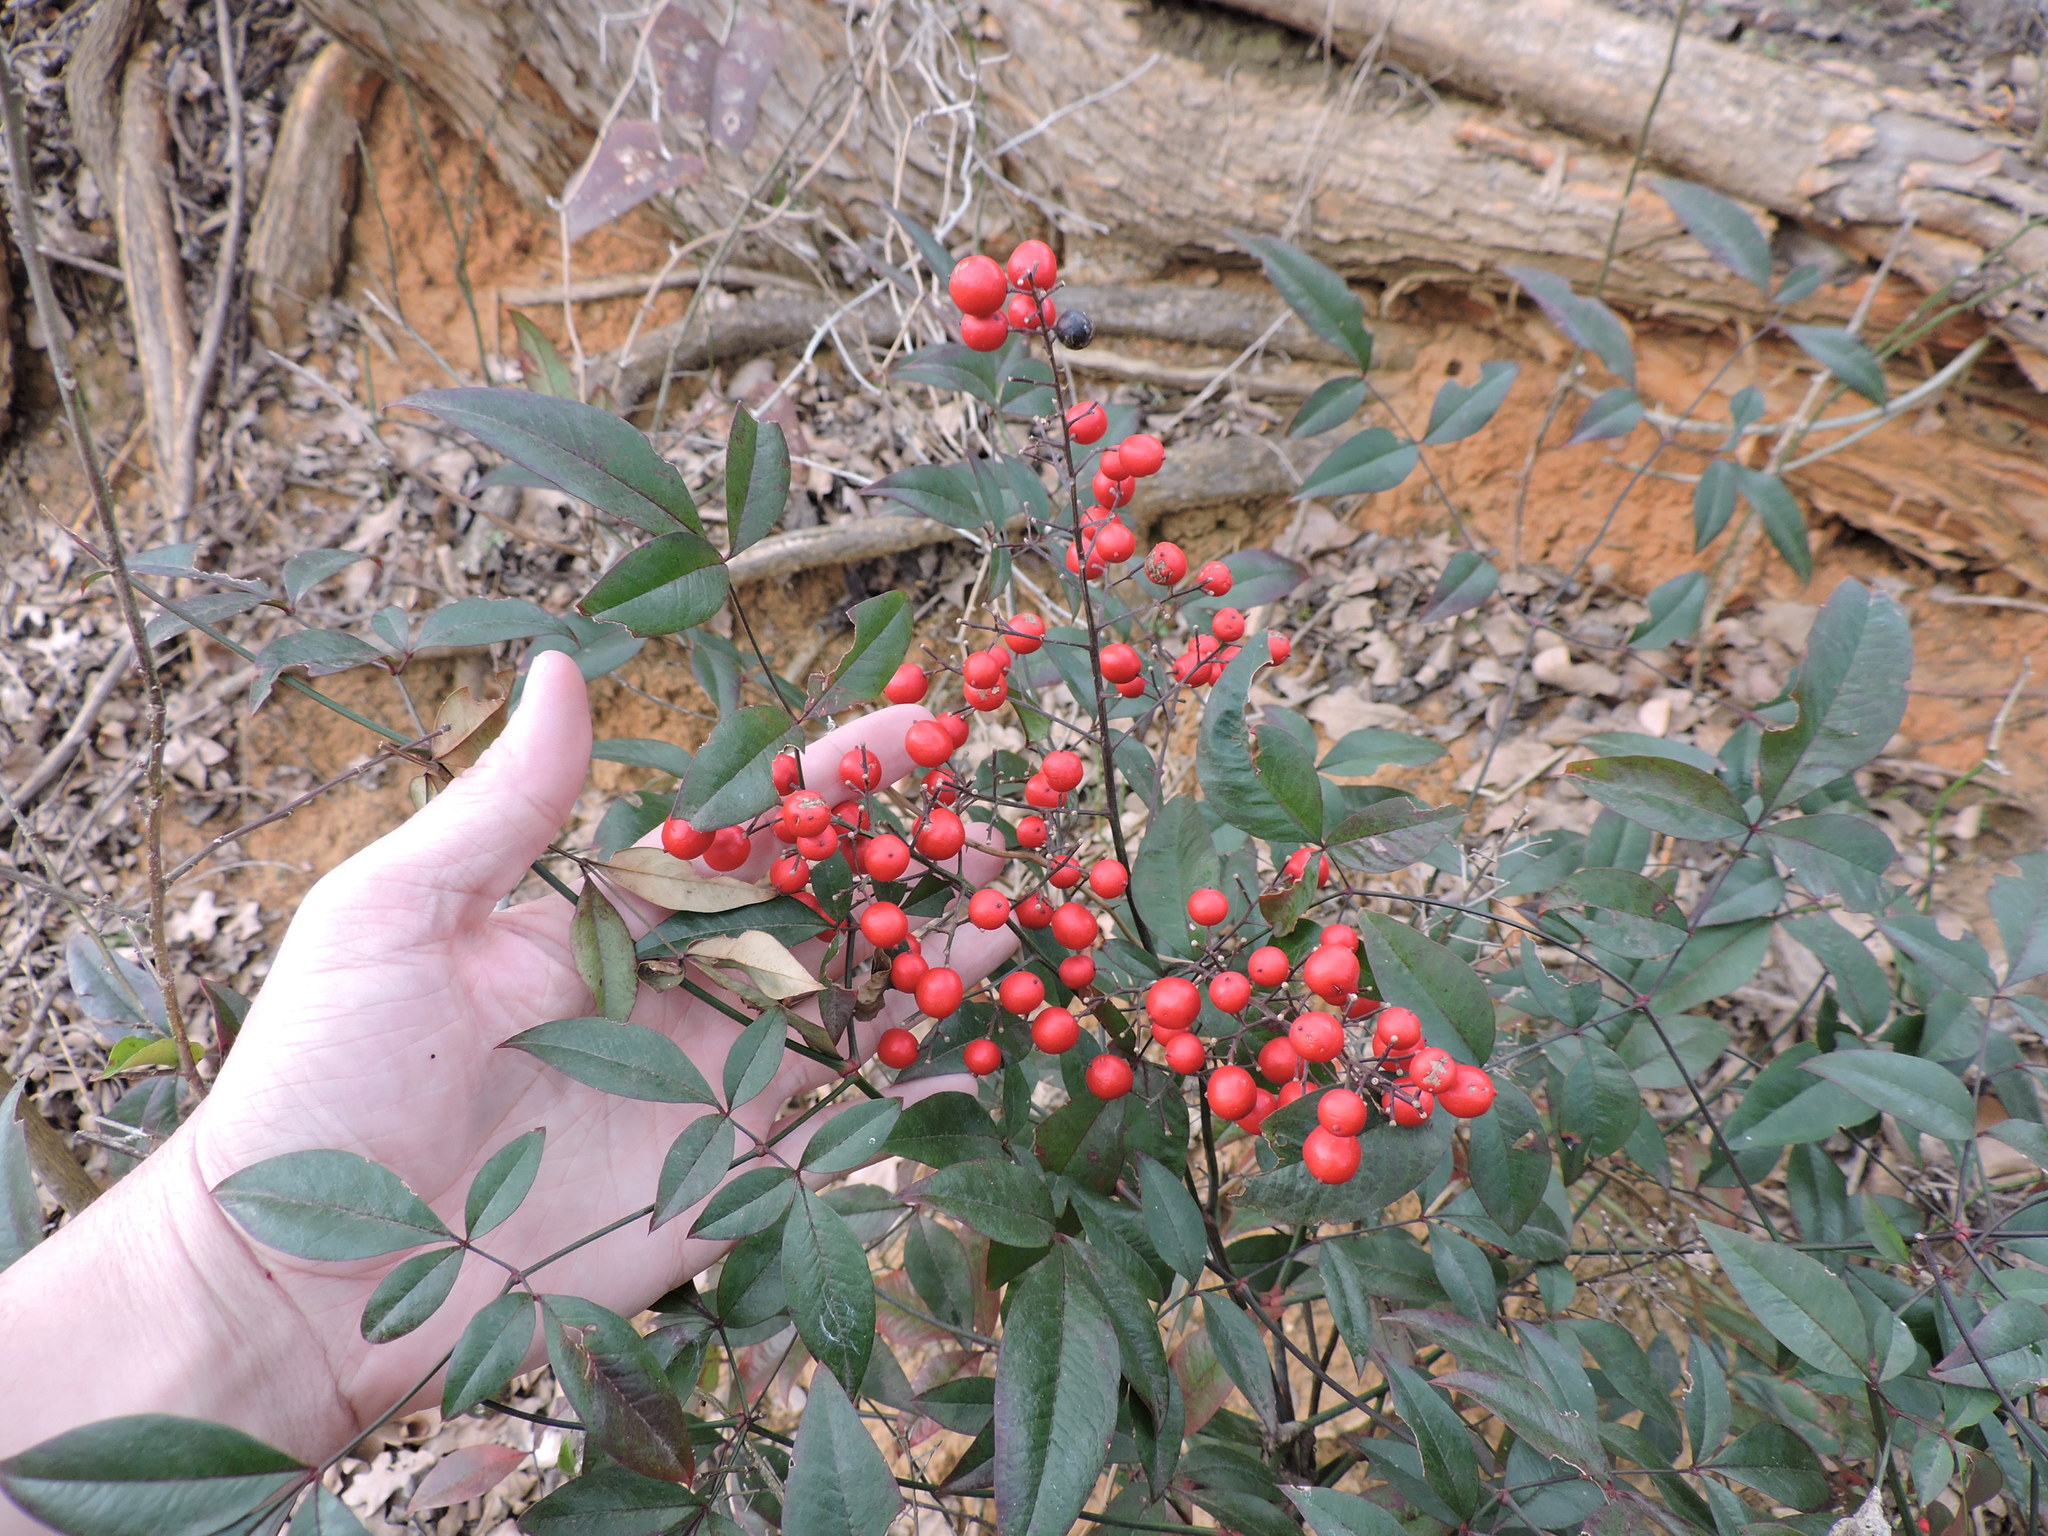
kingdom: Plantae
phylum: Tracheophyta
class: Magnoliopsida
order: Ranunculales
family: Berberidaceae
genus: Nandina
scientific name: Nandina domestica
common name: Sacred bamboo
